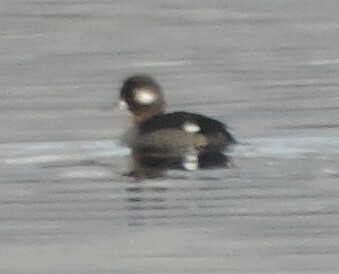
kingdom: Animalia
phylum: Chordata
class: Aves
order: Anseriformes
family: Anatidae
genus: Bucephala
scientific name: Bucephala albeola
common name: Bufflehead
